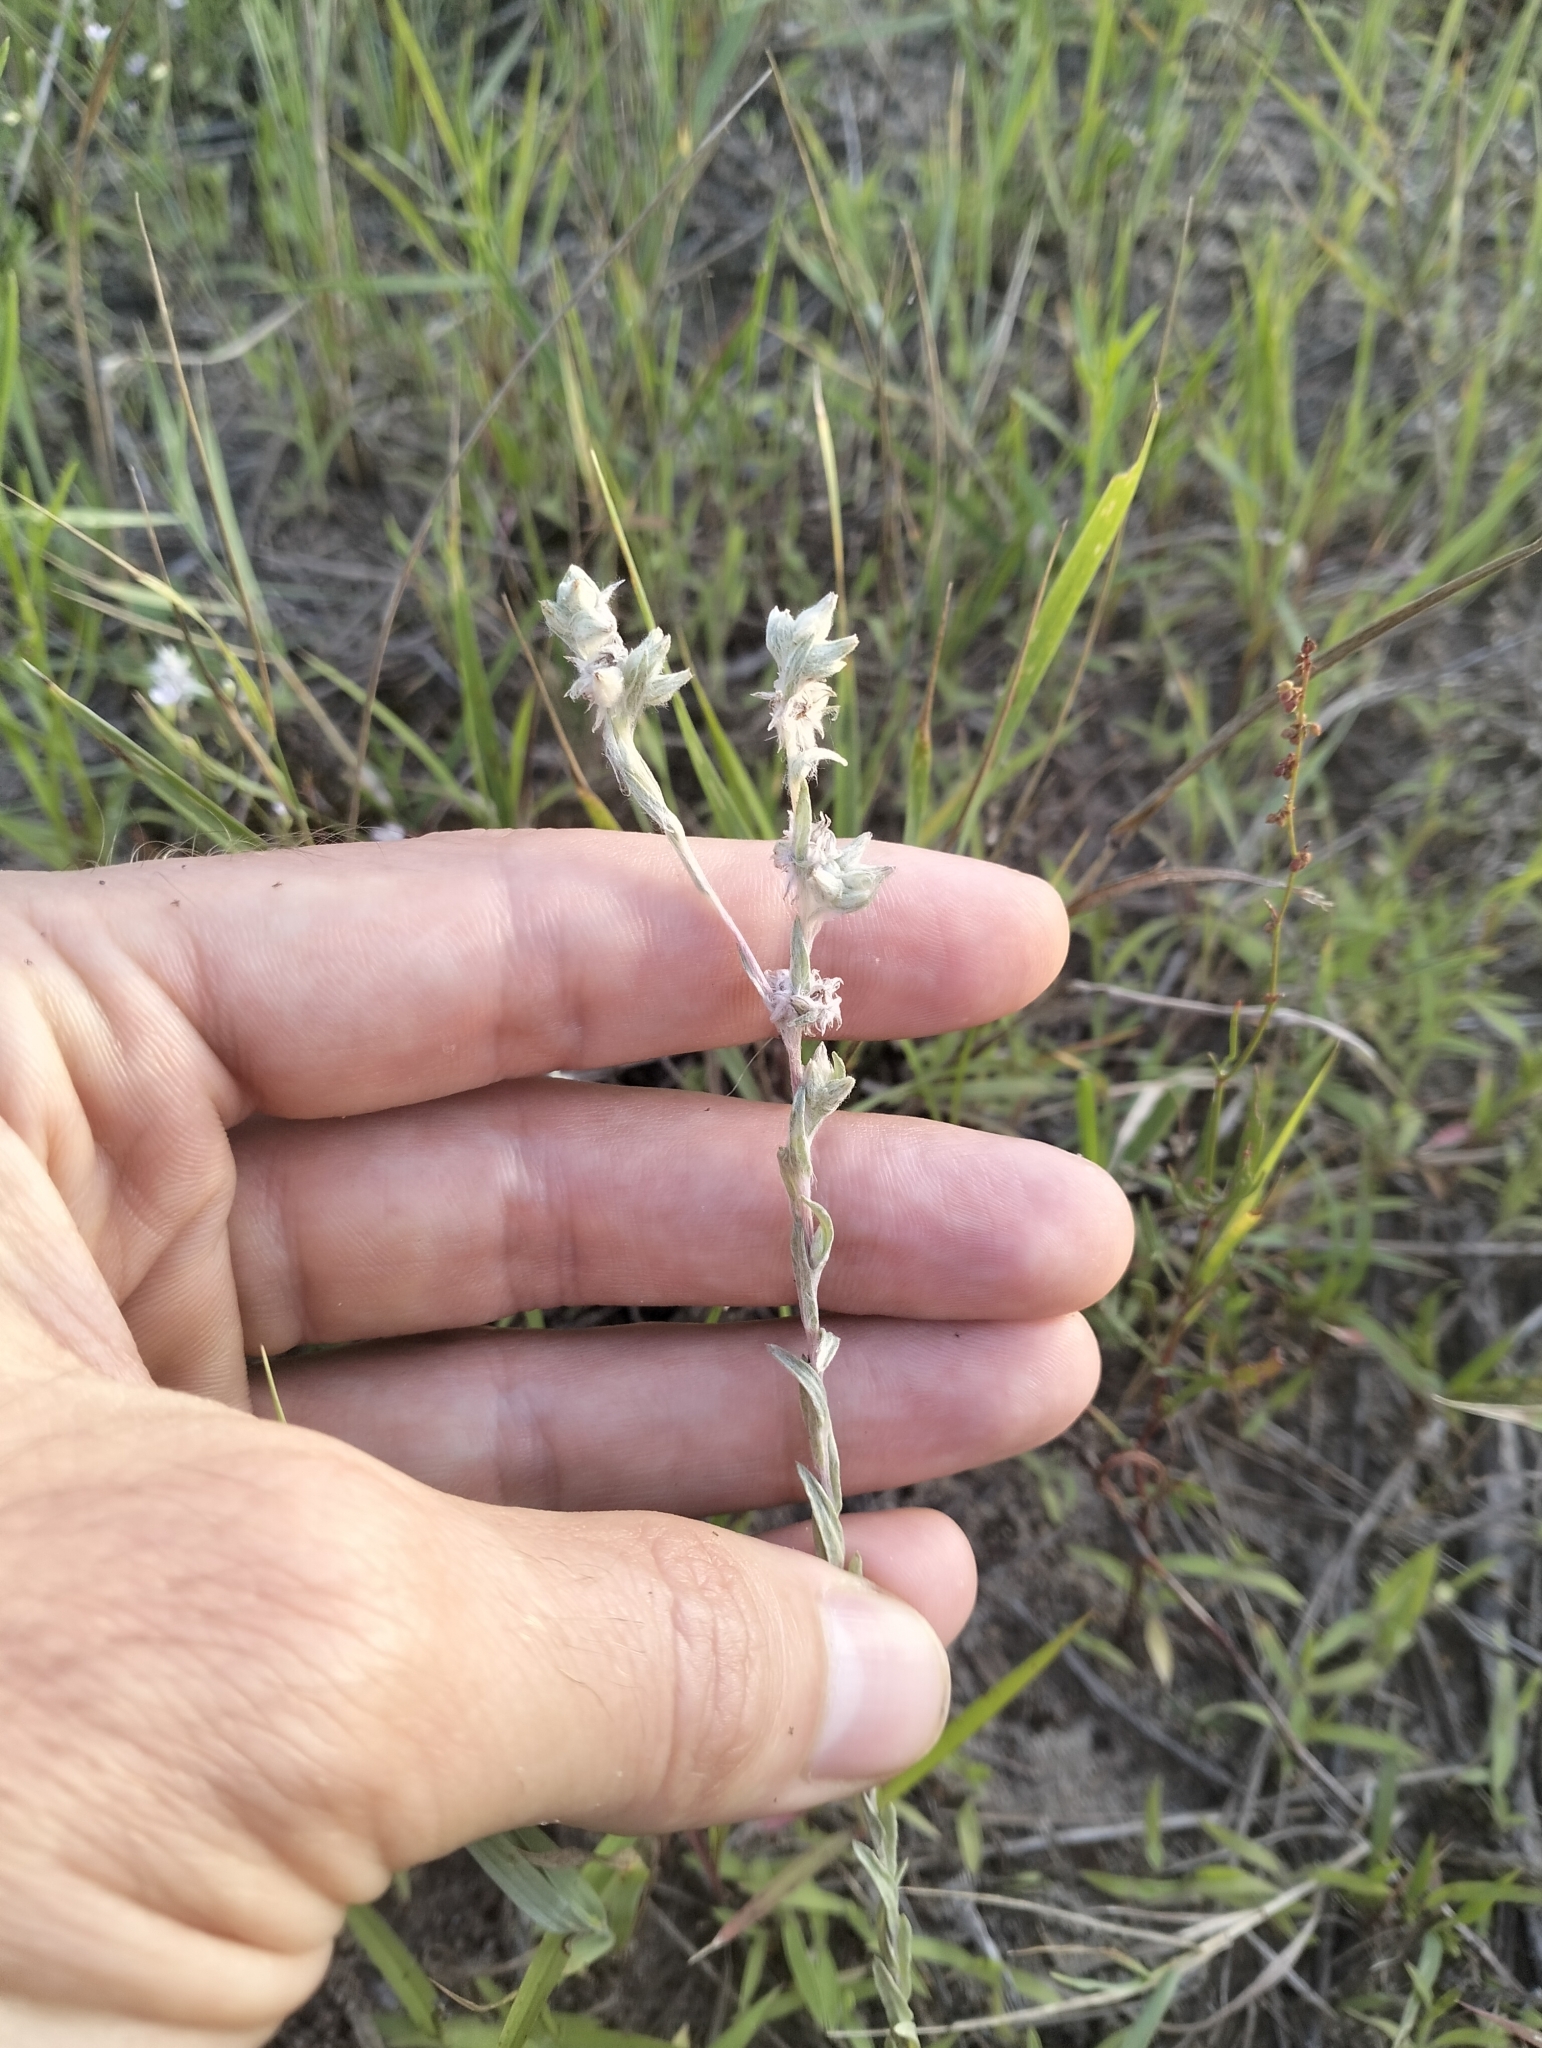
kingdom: Plantae
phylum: Tracheophyta
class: Magnoliopsida
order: Asterales
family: Asteraceae
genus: Filago
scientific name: Filago arvensis
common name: Field cudweed
